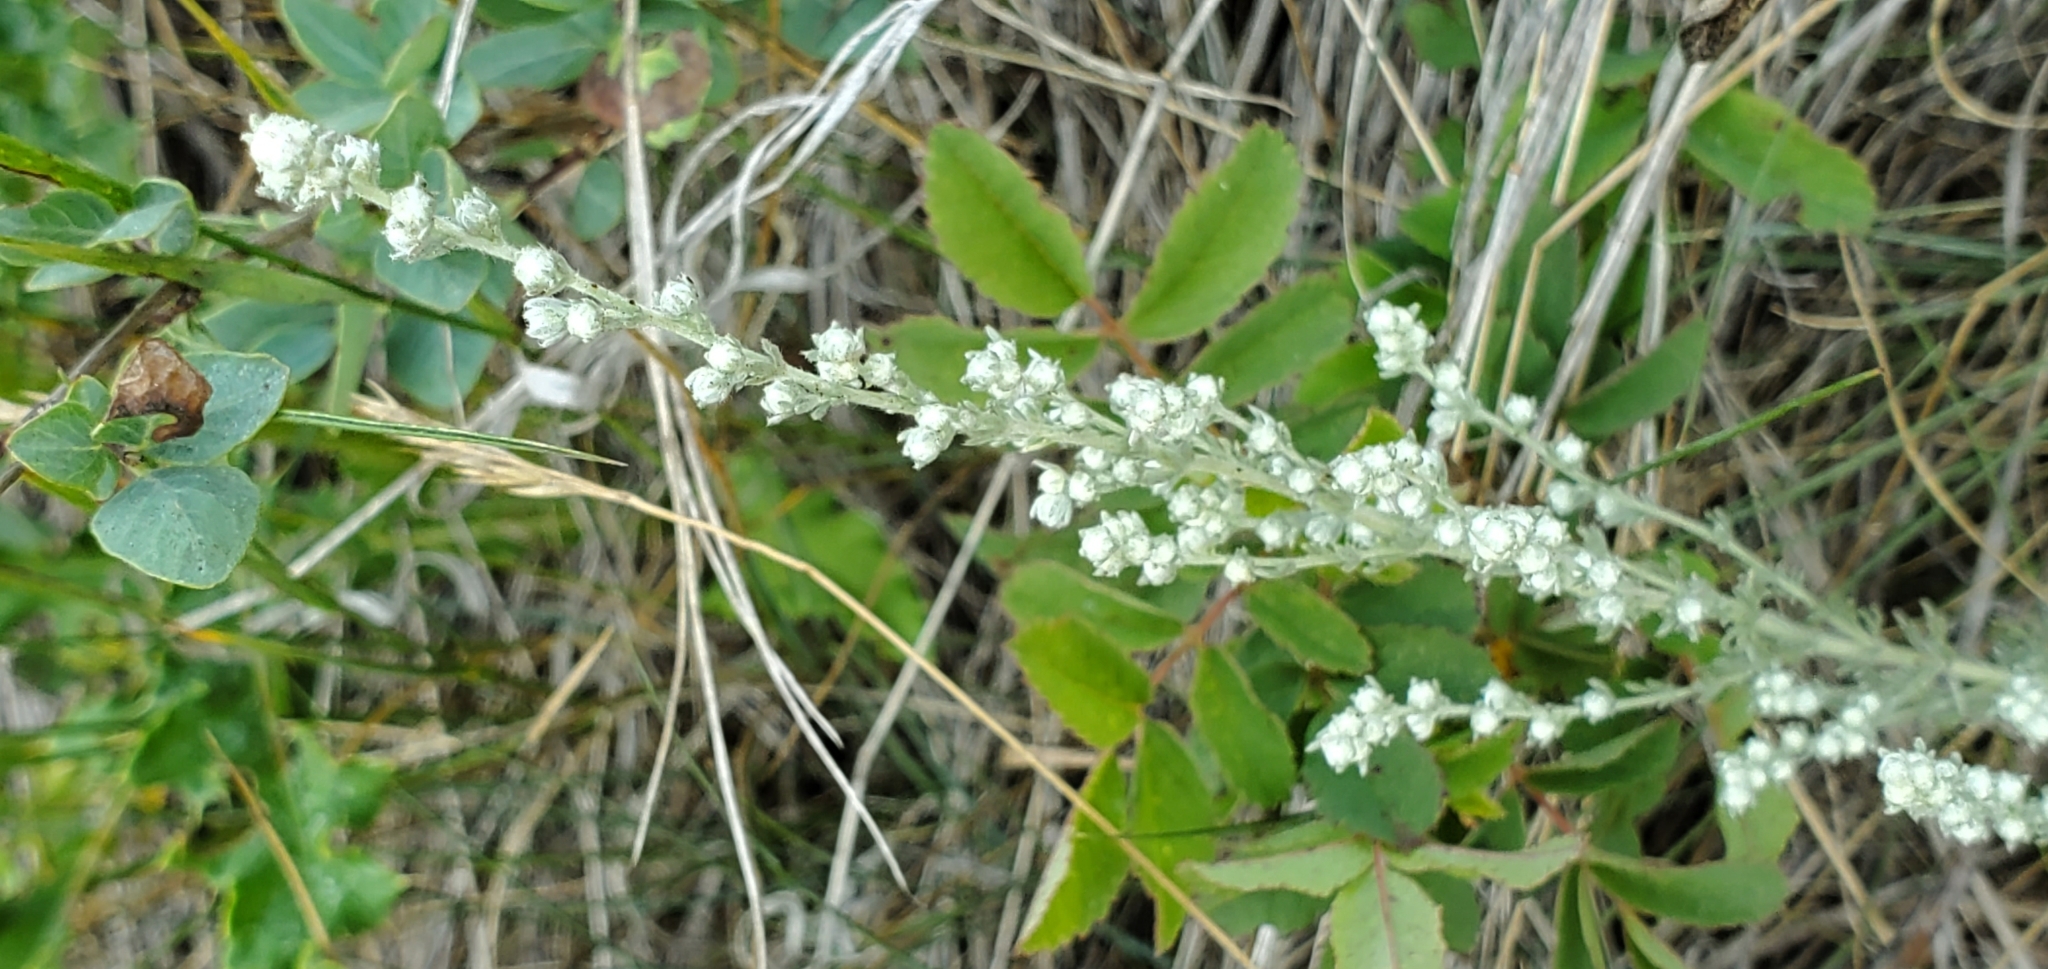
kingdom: Plantae
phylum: Tracheophyta
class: Magnoliopsida
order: Asterales
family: Asteraceae
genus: Artemisia
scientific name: Artemisia frigida
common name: Prairie sagewort
